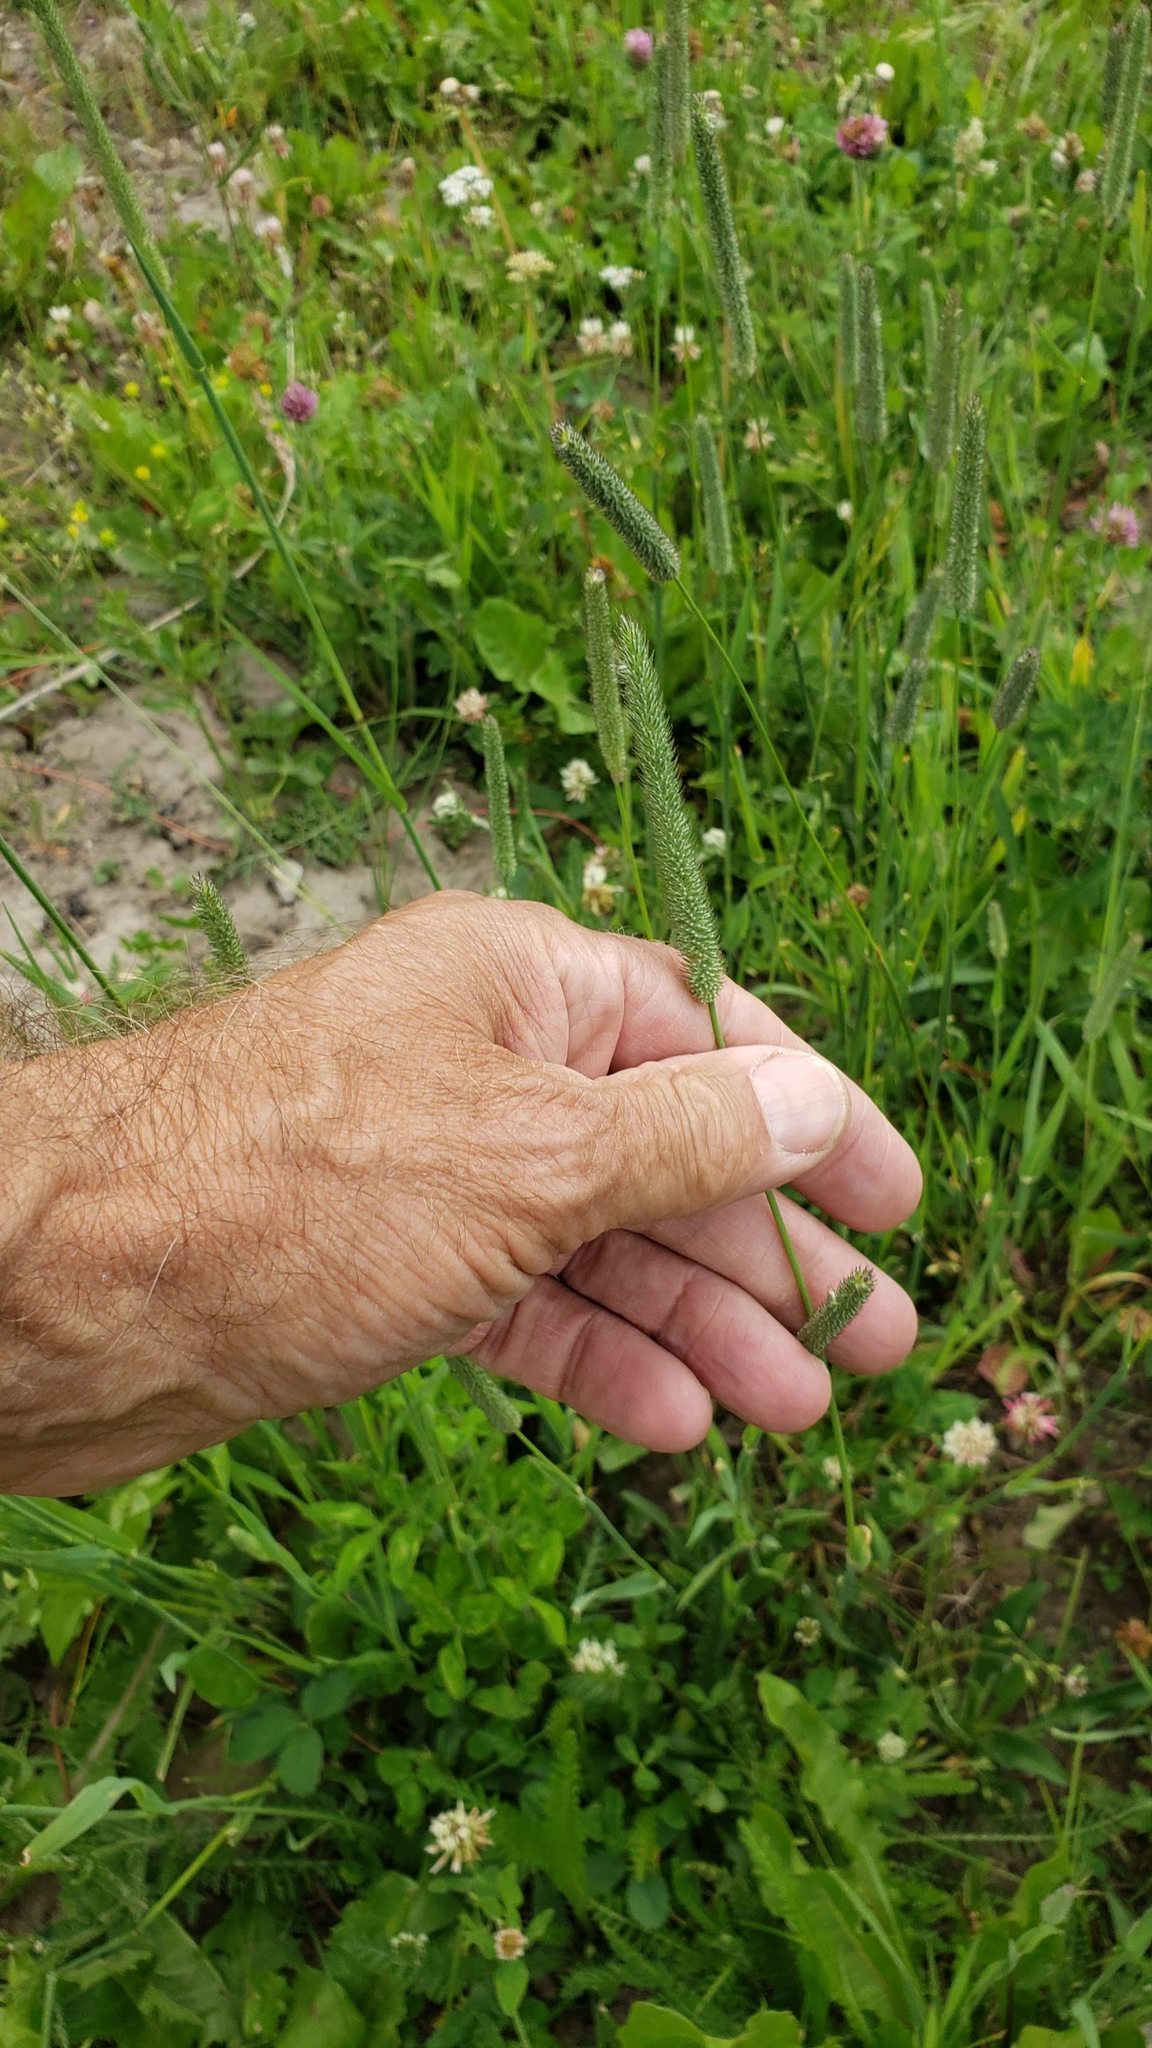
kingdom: Plantae
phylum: Tracheophyta
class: Liliopsida
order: Poales
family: Poaceae
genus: Phleum
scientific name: Phleum pratense
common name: Timothy grass
